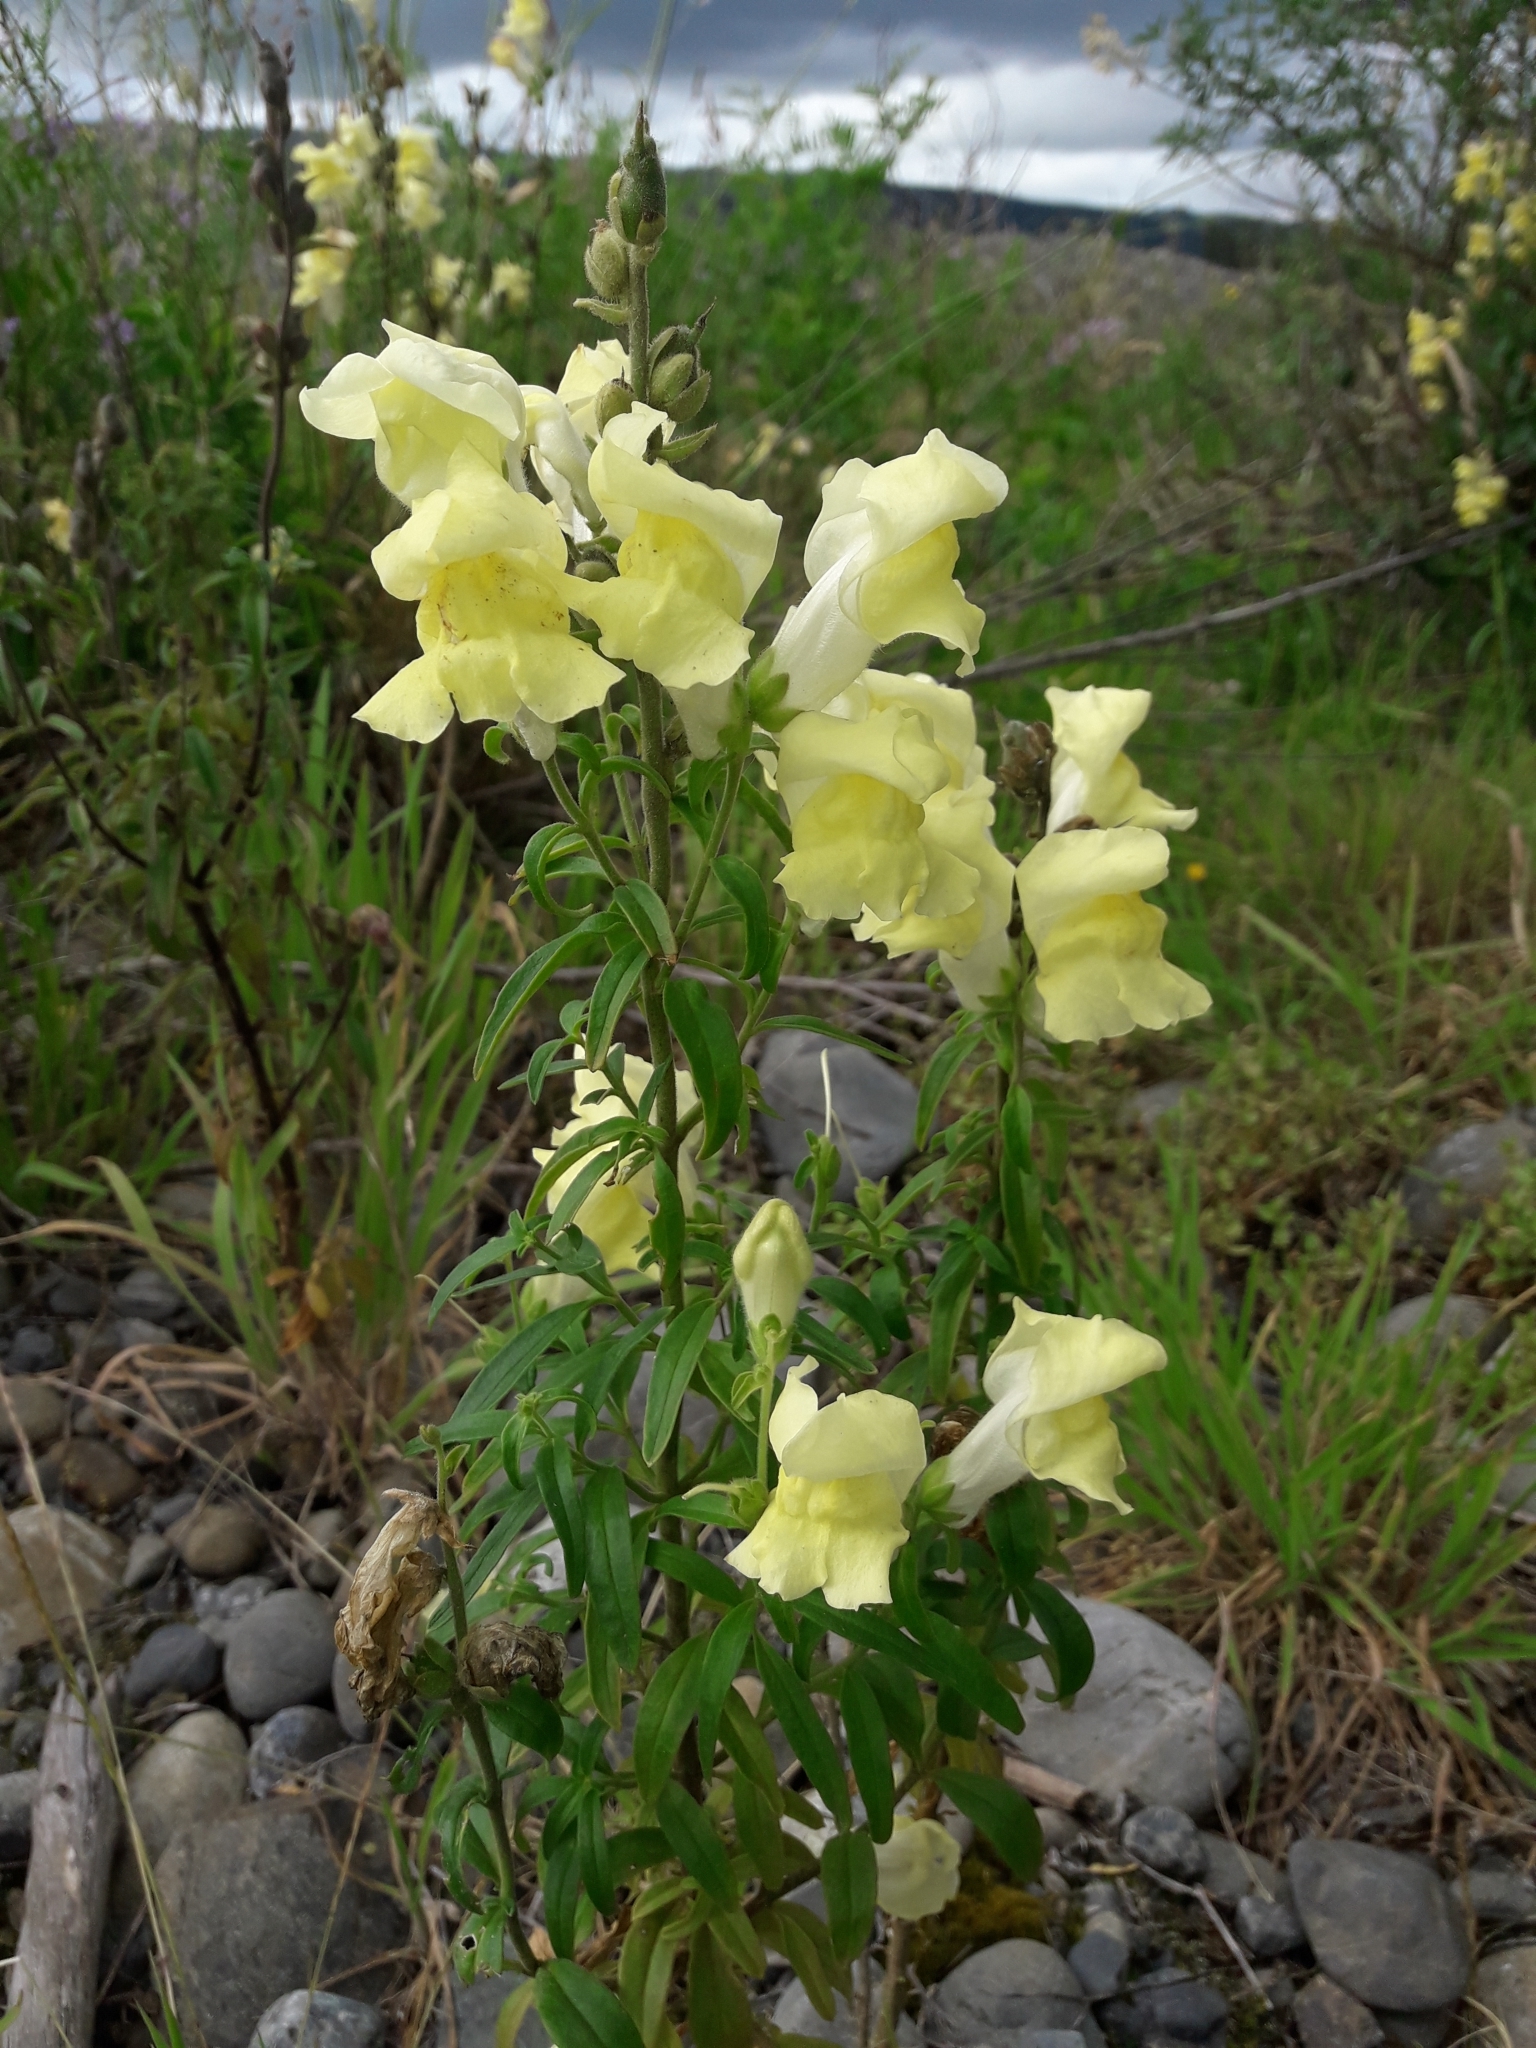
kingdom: Plantae
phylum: Tracheophyta
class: Magnoliopsida
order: Lamiales
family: Plantaginaceae
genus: Antirrhinum
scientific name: Antirrhinum majus
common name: Snapdragon
